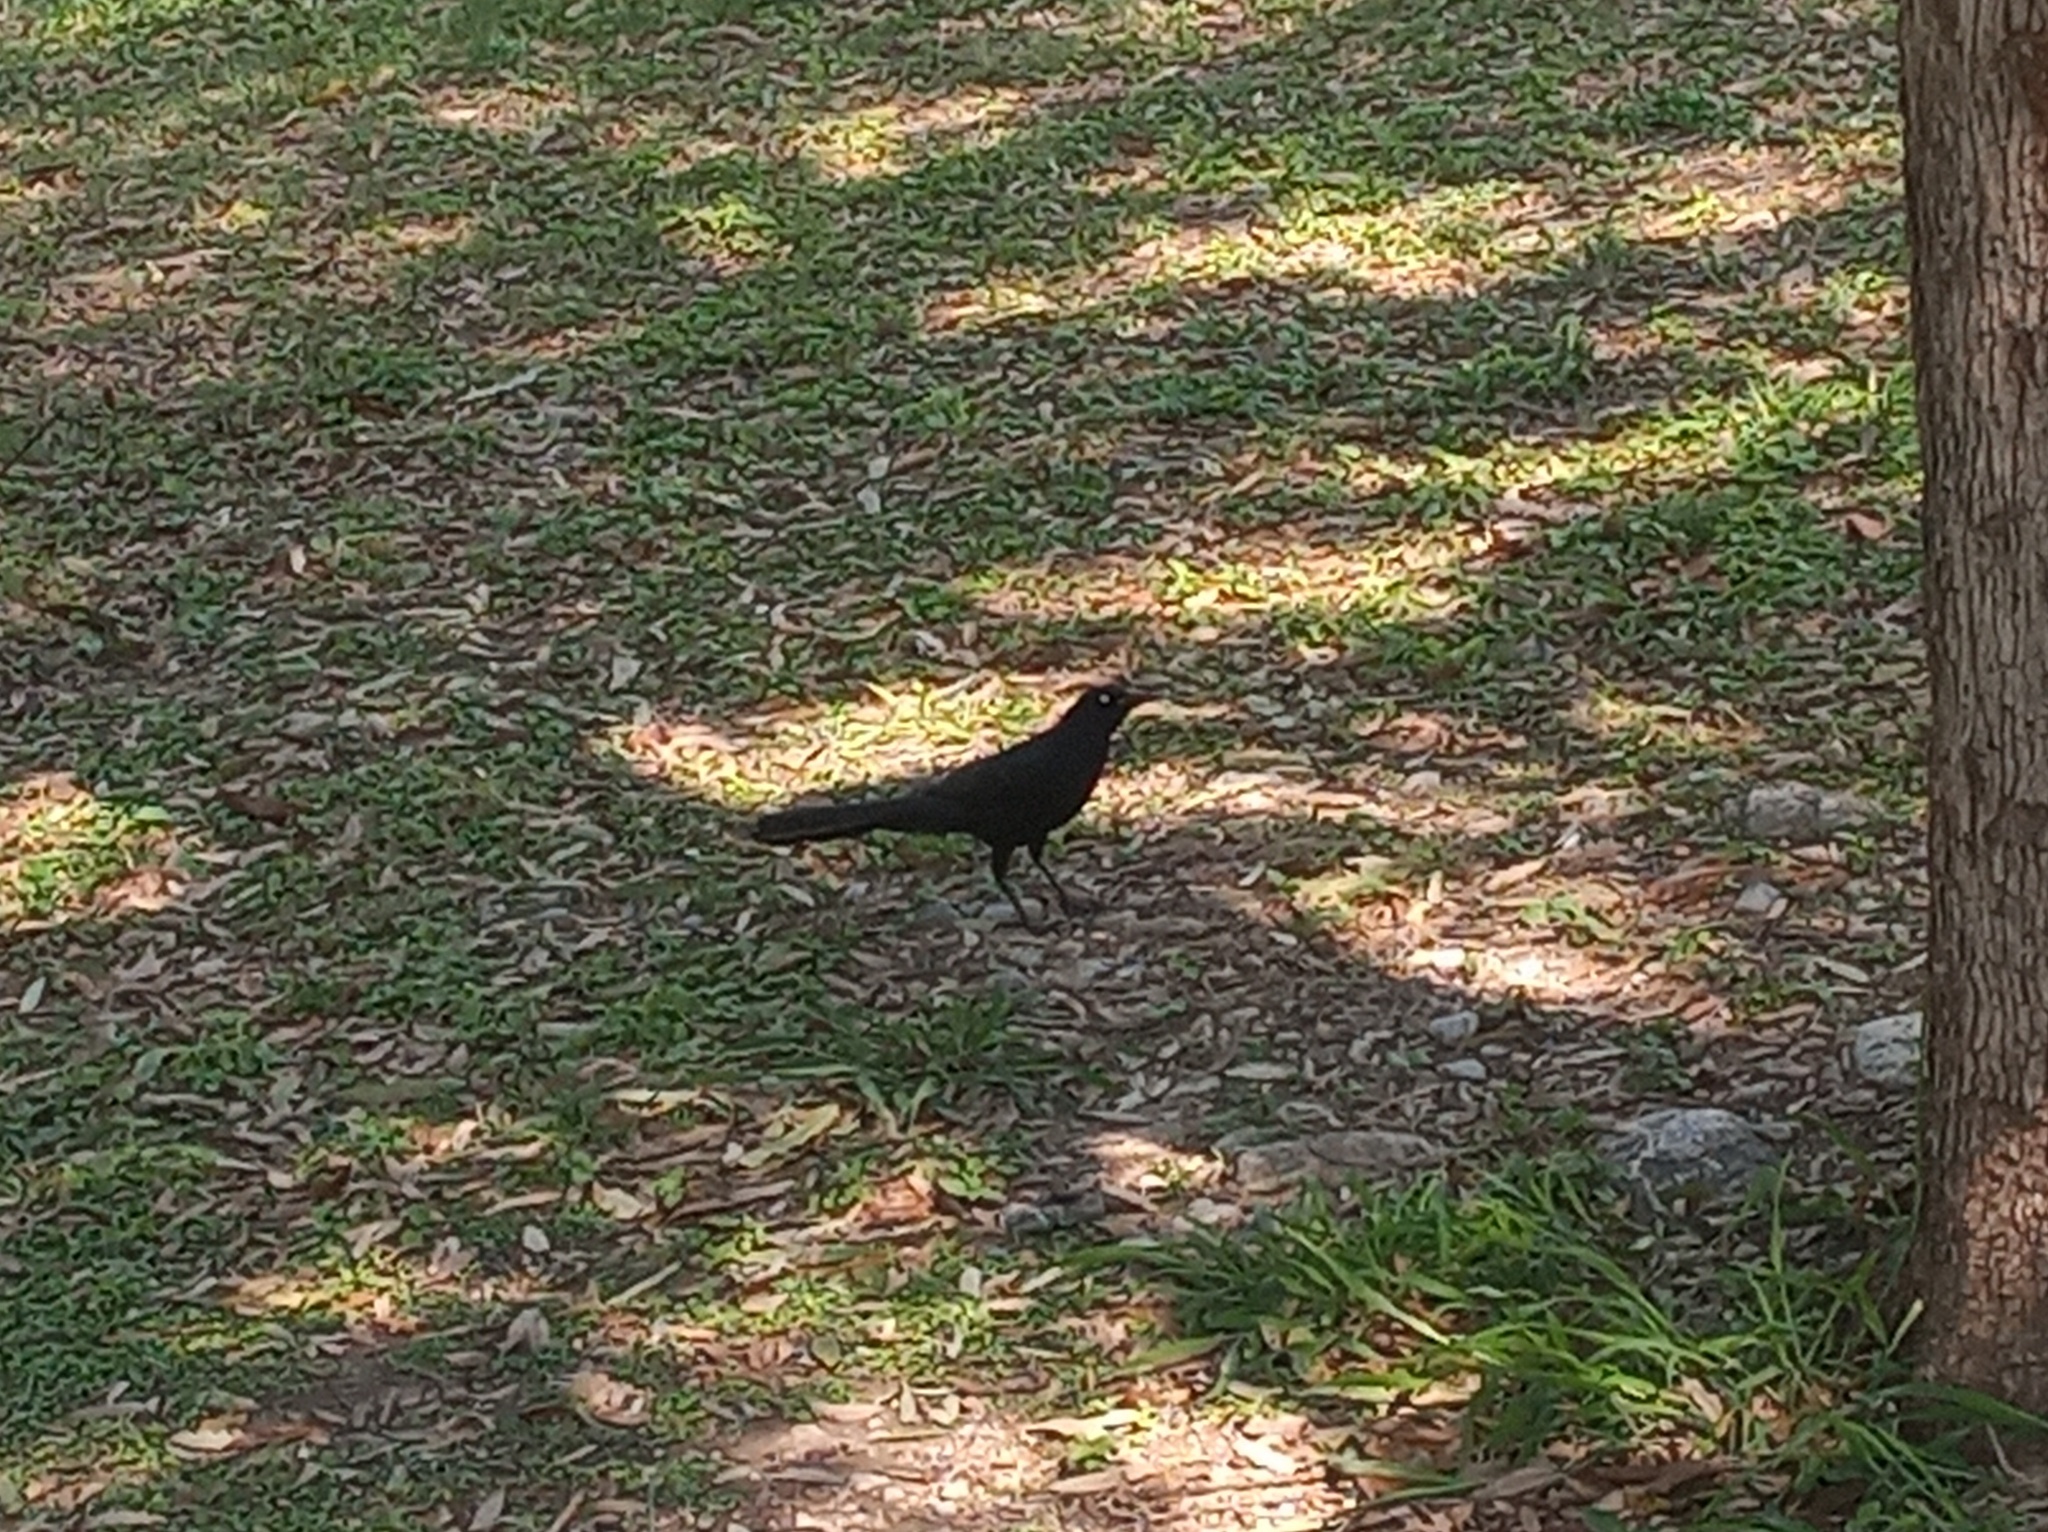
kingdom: Animalia
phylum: Chordata
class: Aves
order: Passeriformes
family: Icteridae
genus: Quiscalus
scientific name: Quiscalus mexicanus
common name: Great-tailed grackle
